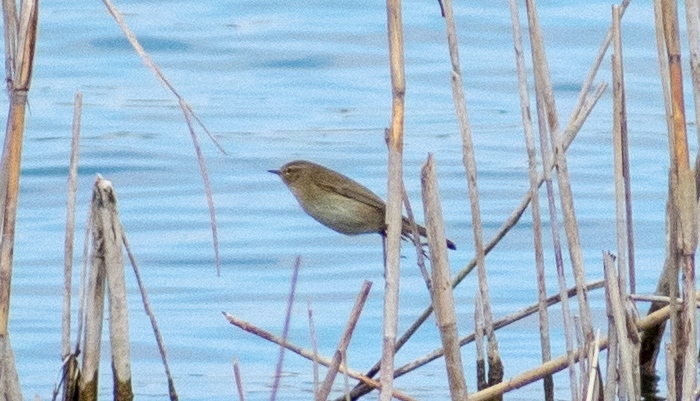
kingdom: Animalia
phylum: Chordata
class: Aves
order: Passeriformes
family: Phylloscopidae
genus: Phylloscopus
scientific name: Phylloscopus collybita
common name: Common chiffchaff
